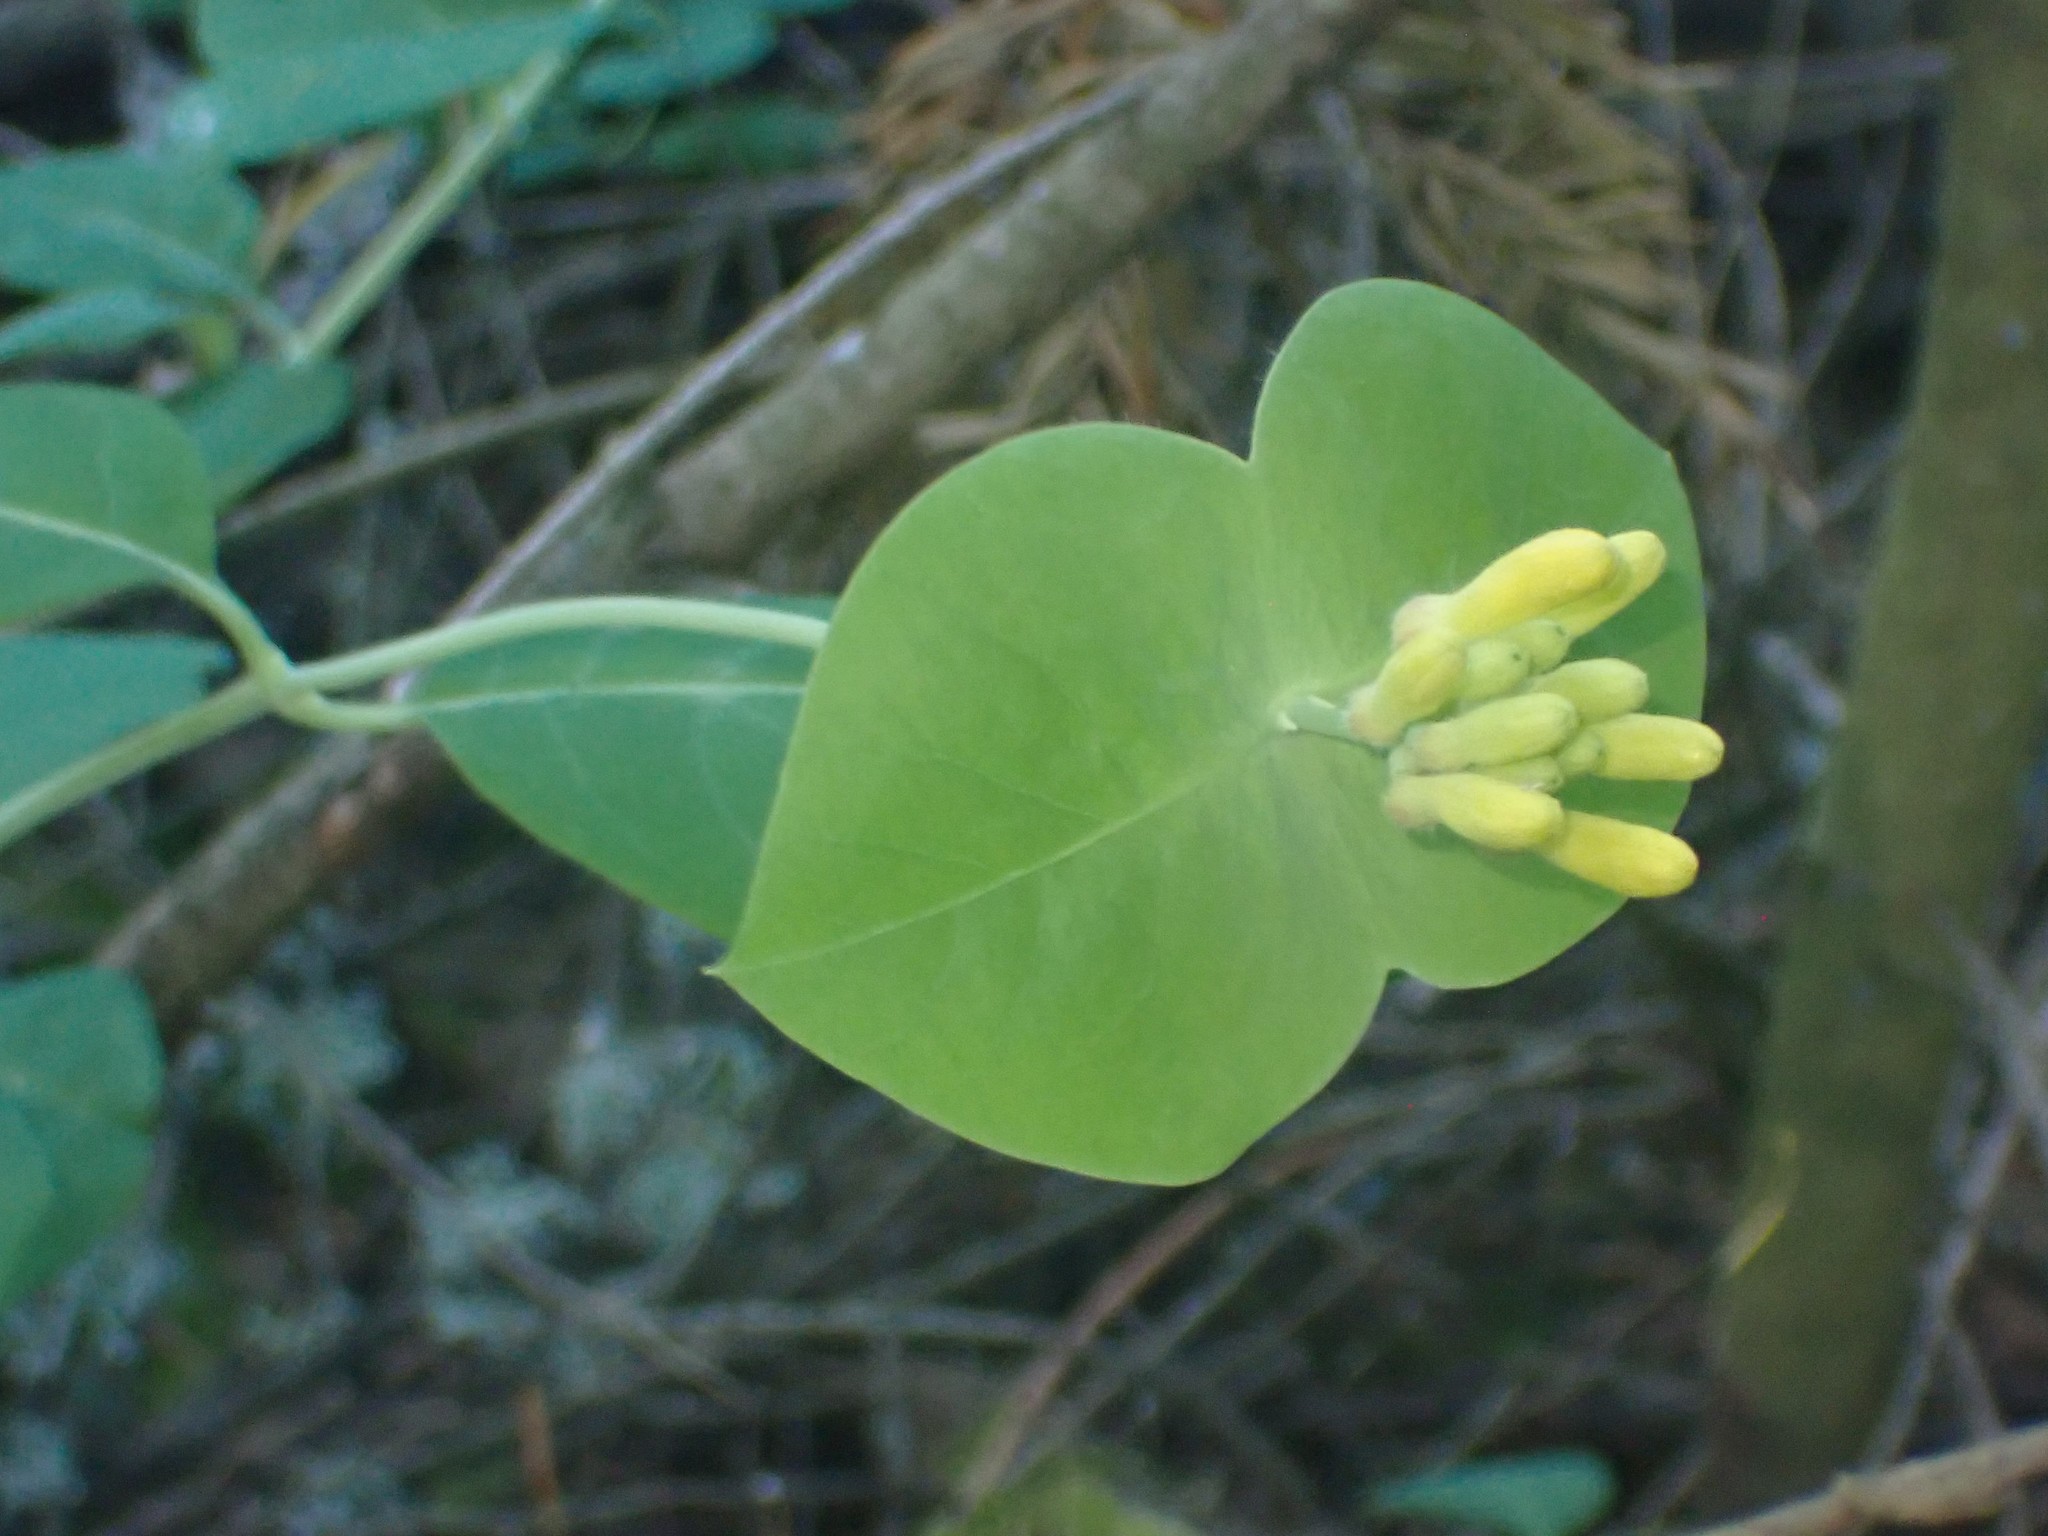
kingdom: Plantae
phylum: Tracheophyta
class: Magnoliopsida
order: Dipsacales
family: Caprifoliaceae
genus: Lonicera
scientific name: Lonicera ciliosa
